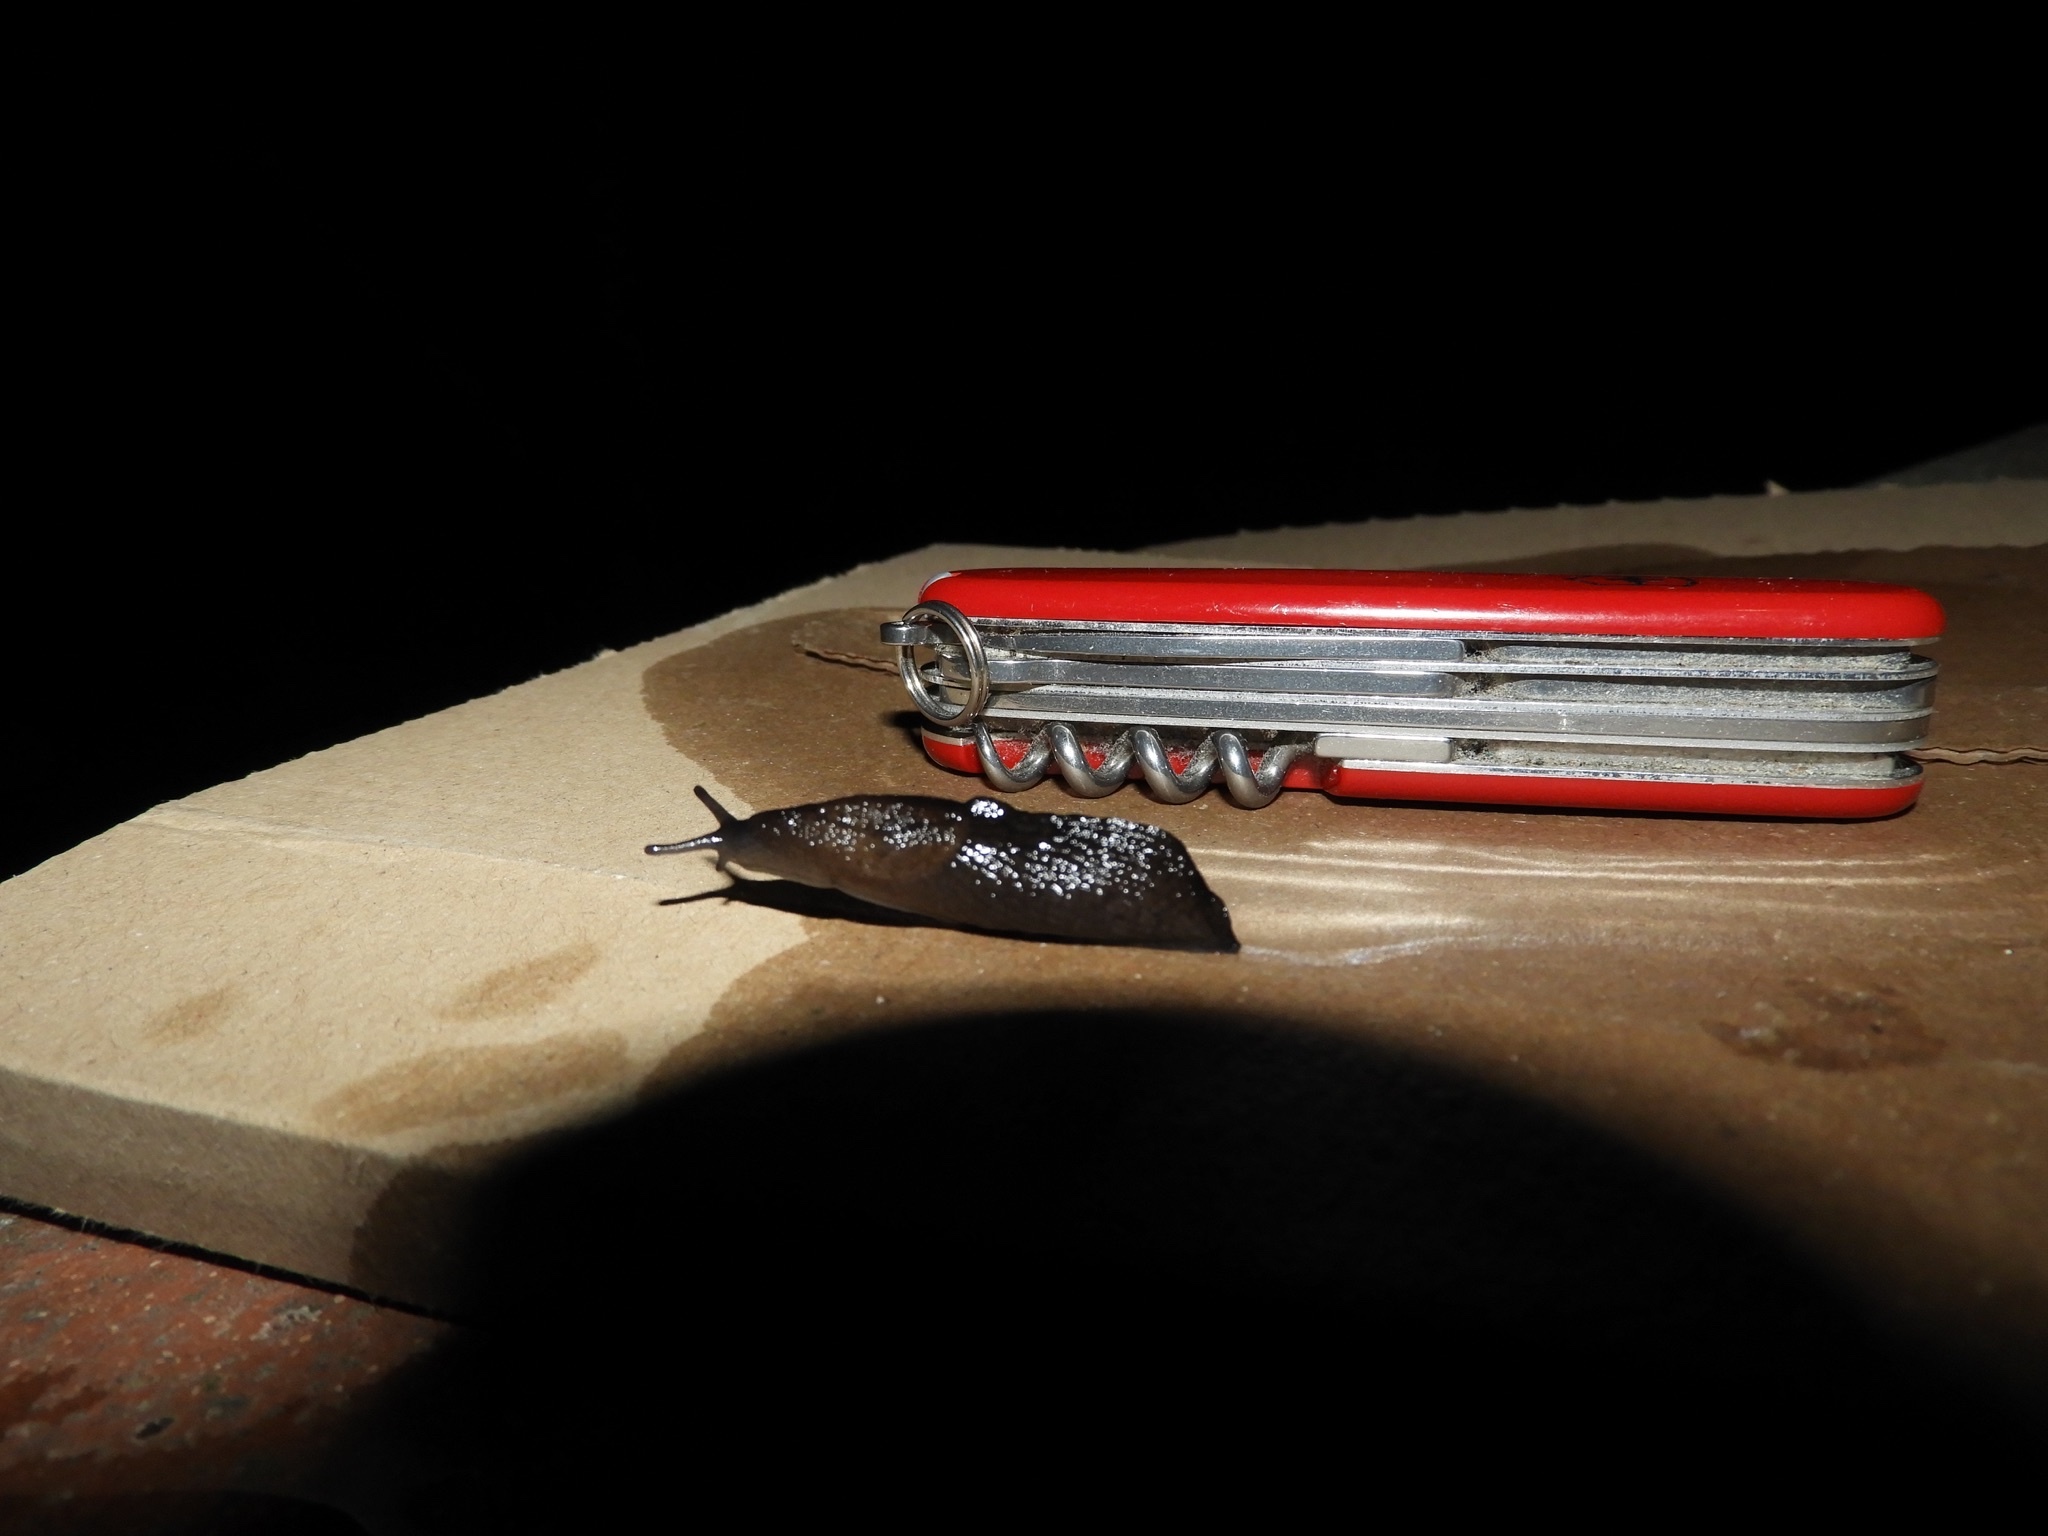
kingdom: Animalia
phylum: Mollusca
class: Gastropoda
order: Stylommatophora
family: Milacidae
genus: Milax
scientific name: Milax nigricans
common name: Black slug
